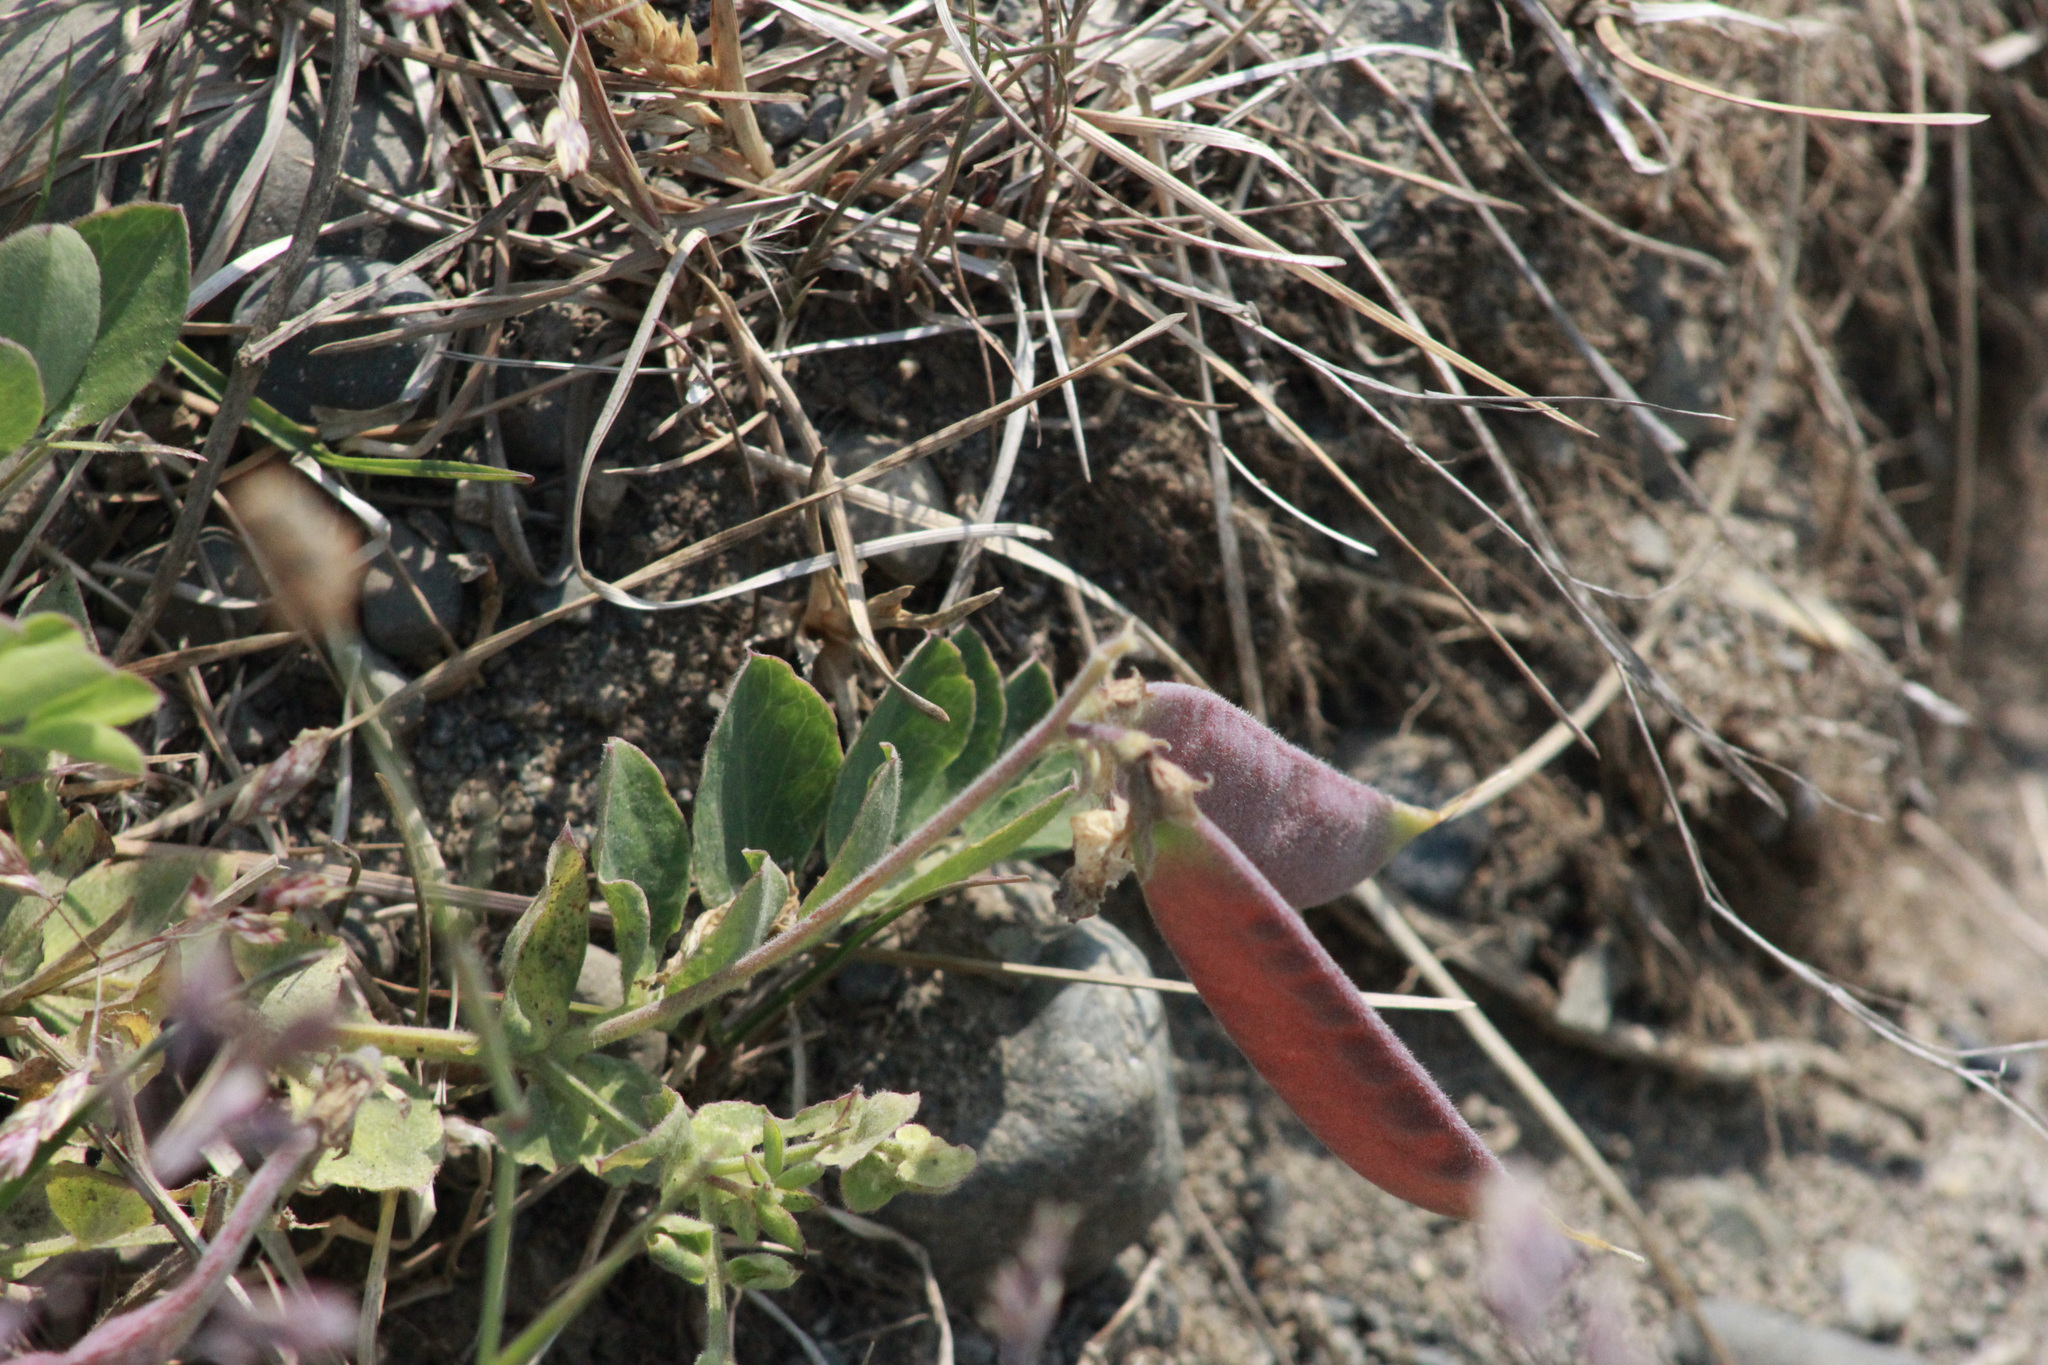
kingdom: Plantae
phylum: Tracheophyta
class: Magnoliopsida
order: Fabales
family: Fabaceae
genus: Lathyrus
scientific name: Lathyrus japonicus
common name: Sea pea
